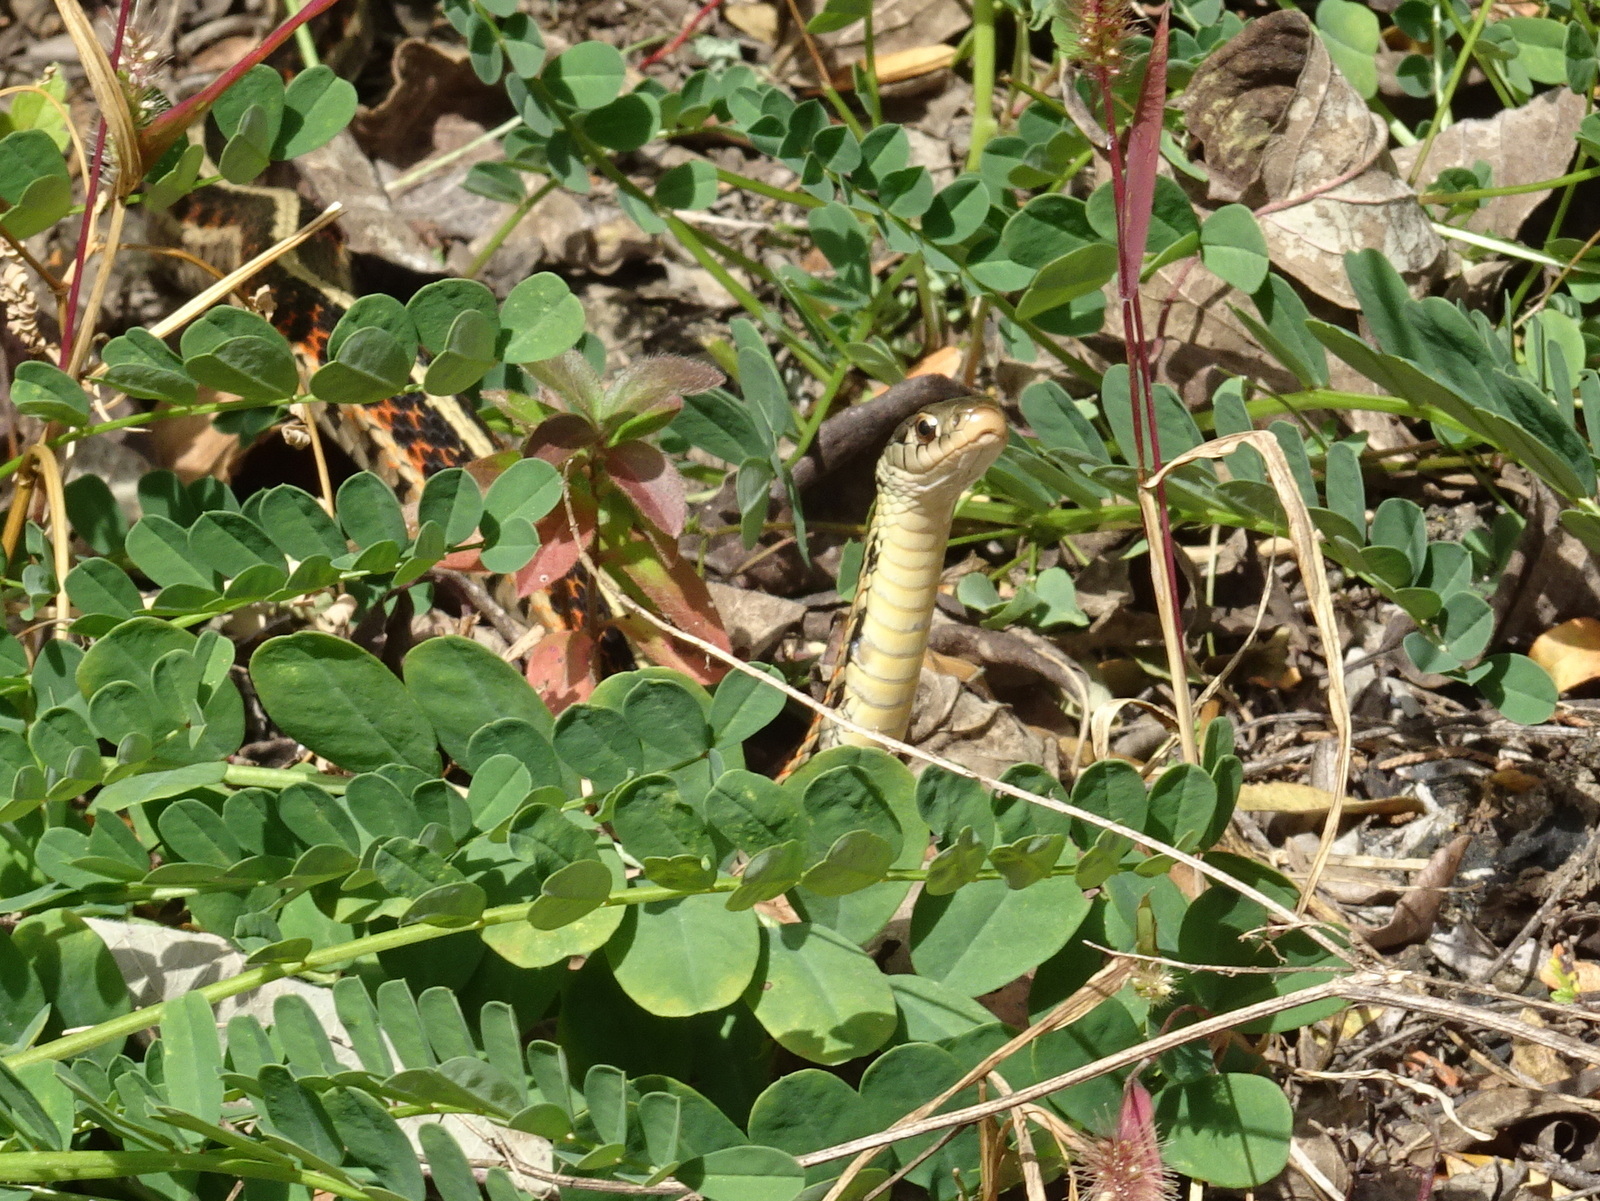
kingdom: Animalia
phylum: Chordata
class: Squamata
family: Colubridae
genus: Thamnophis
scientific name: Thamnophis sirtalis
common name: Common garter snake
